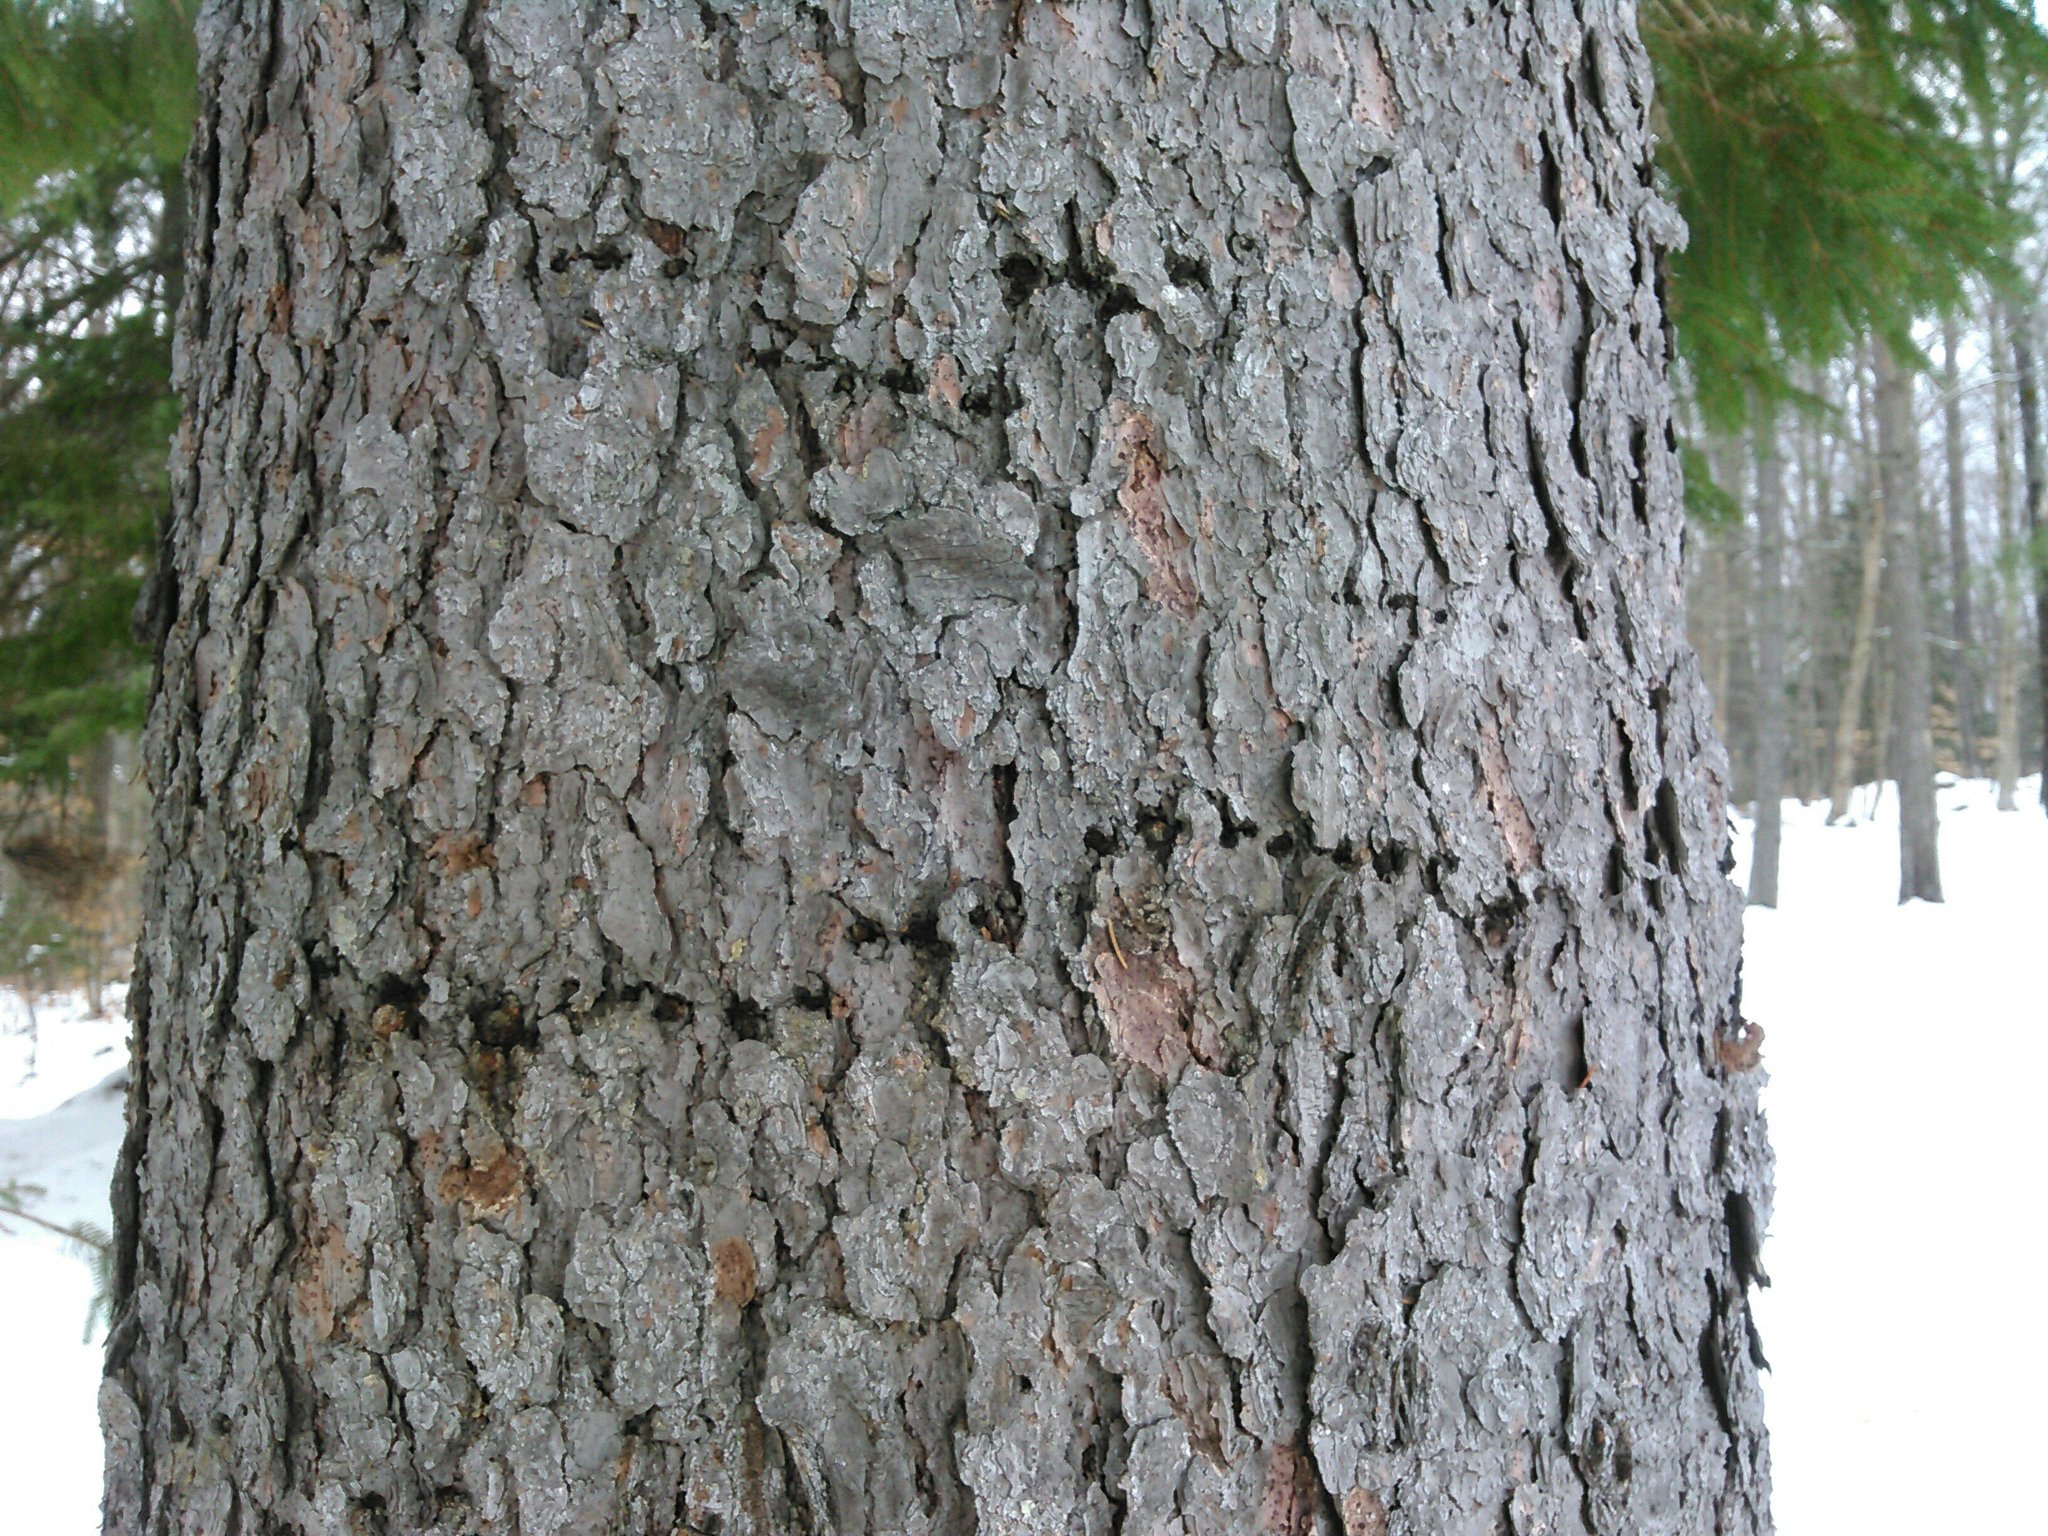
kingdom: Animalia
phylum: Chordata
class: Aves
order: Piciformes
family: Picidae
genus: Sphyrapicus
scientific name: Sphyrapicus varius
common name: Yellow-bellied sapsucker
